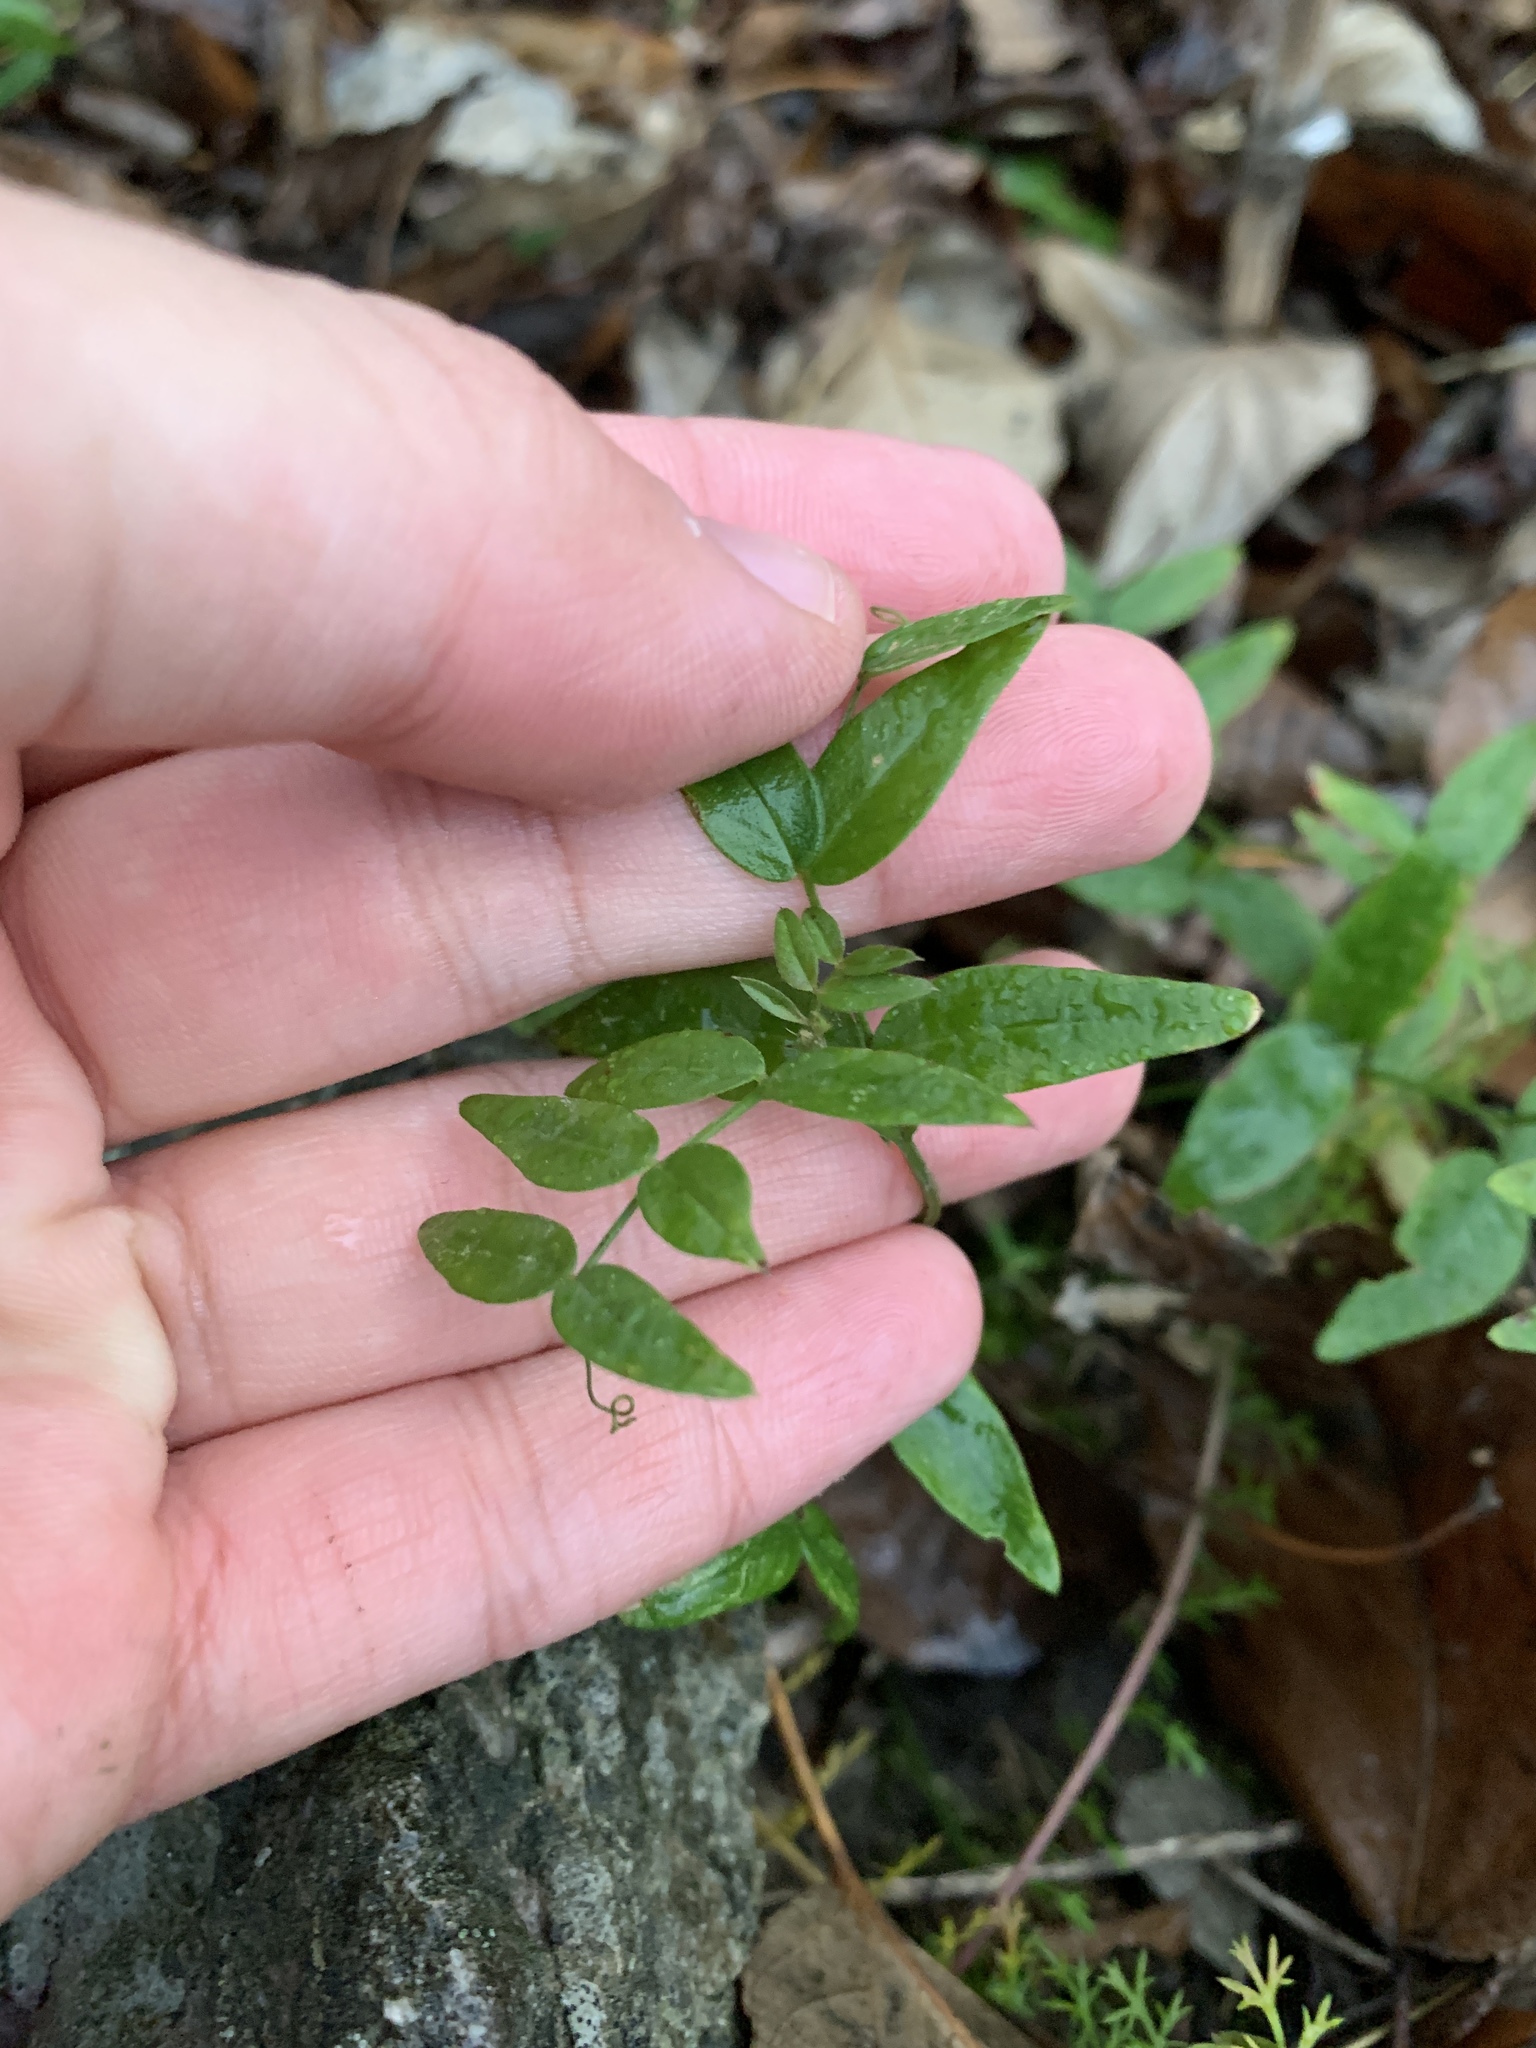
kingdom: Plantae
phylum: Tracheophyta
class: Magnoliopsida
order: Fabales
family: Fabaceae
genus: Vicia
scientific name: Vicia sepium
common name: Bush vetch
